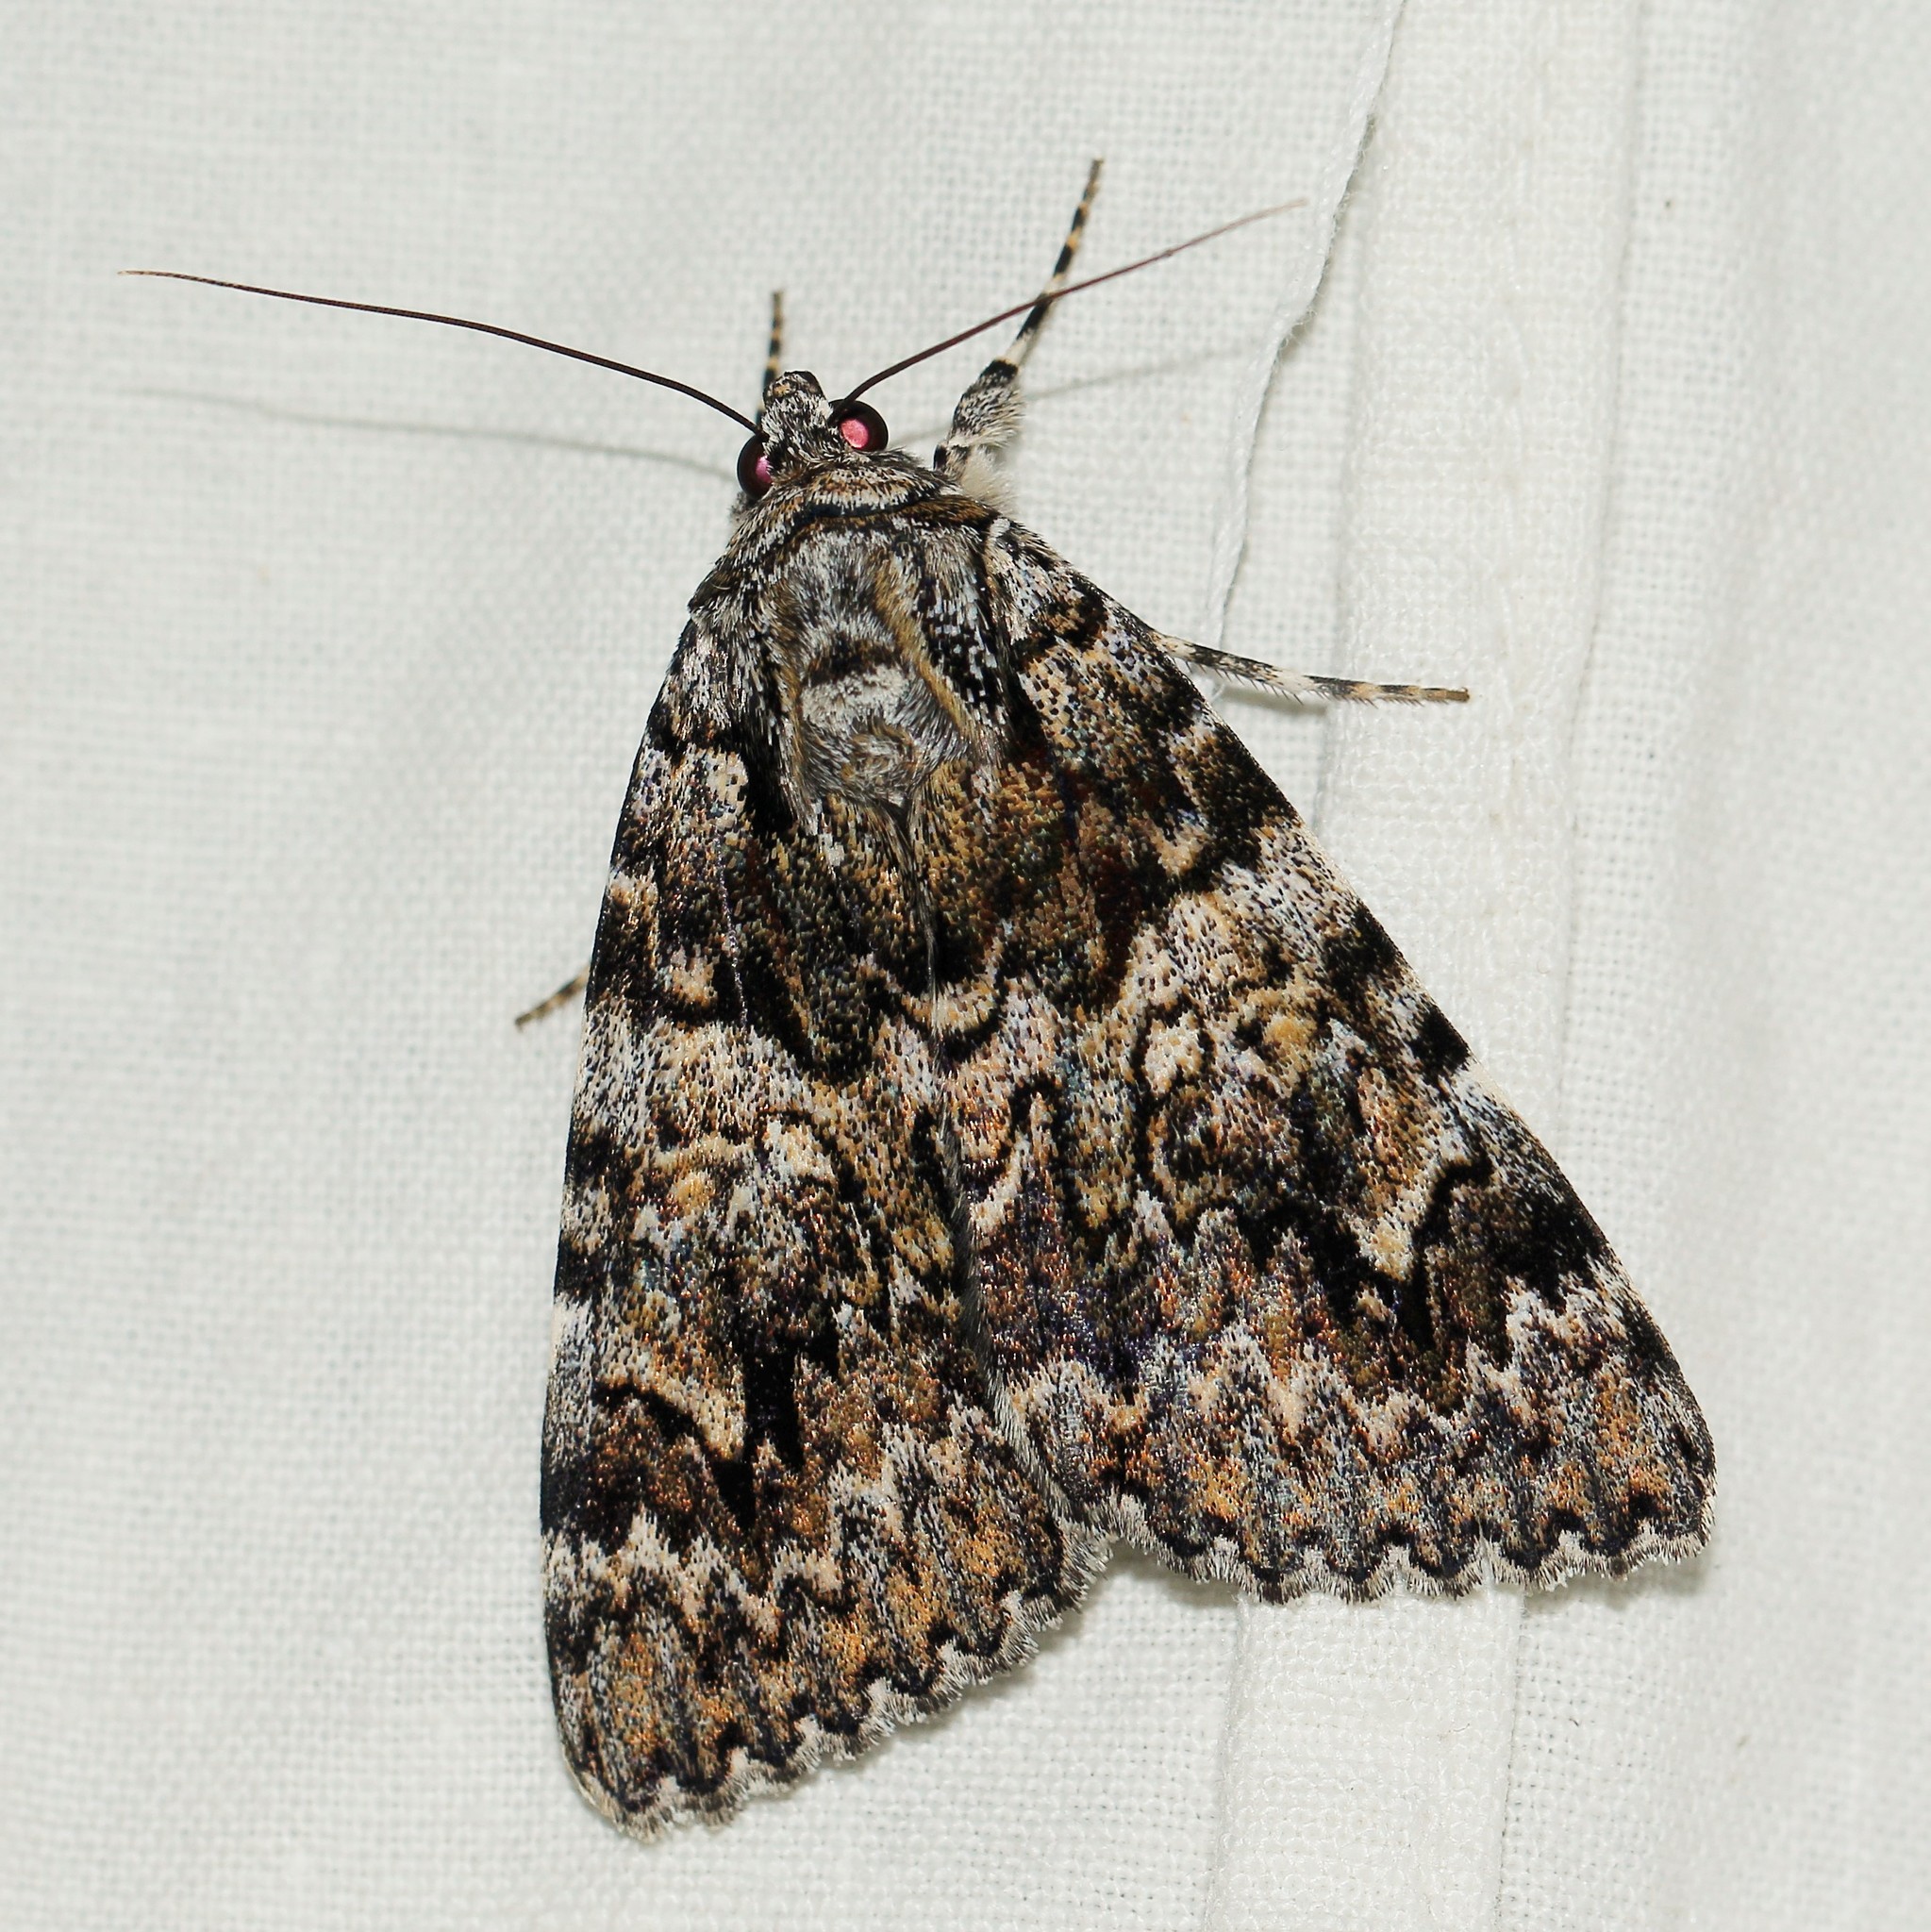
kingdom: Animalia
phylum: Arthropoda
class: Insecta
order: Lepidoptera
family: Erebidae
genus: Catocala
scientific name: Catocala promissa
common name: Light crimson underwing
